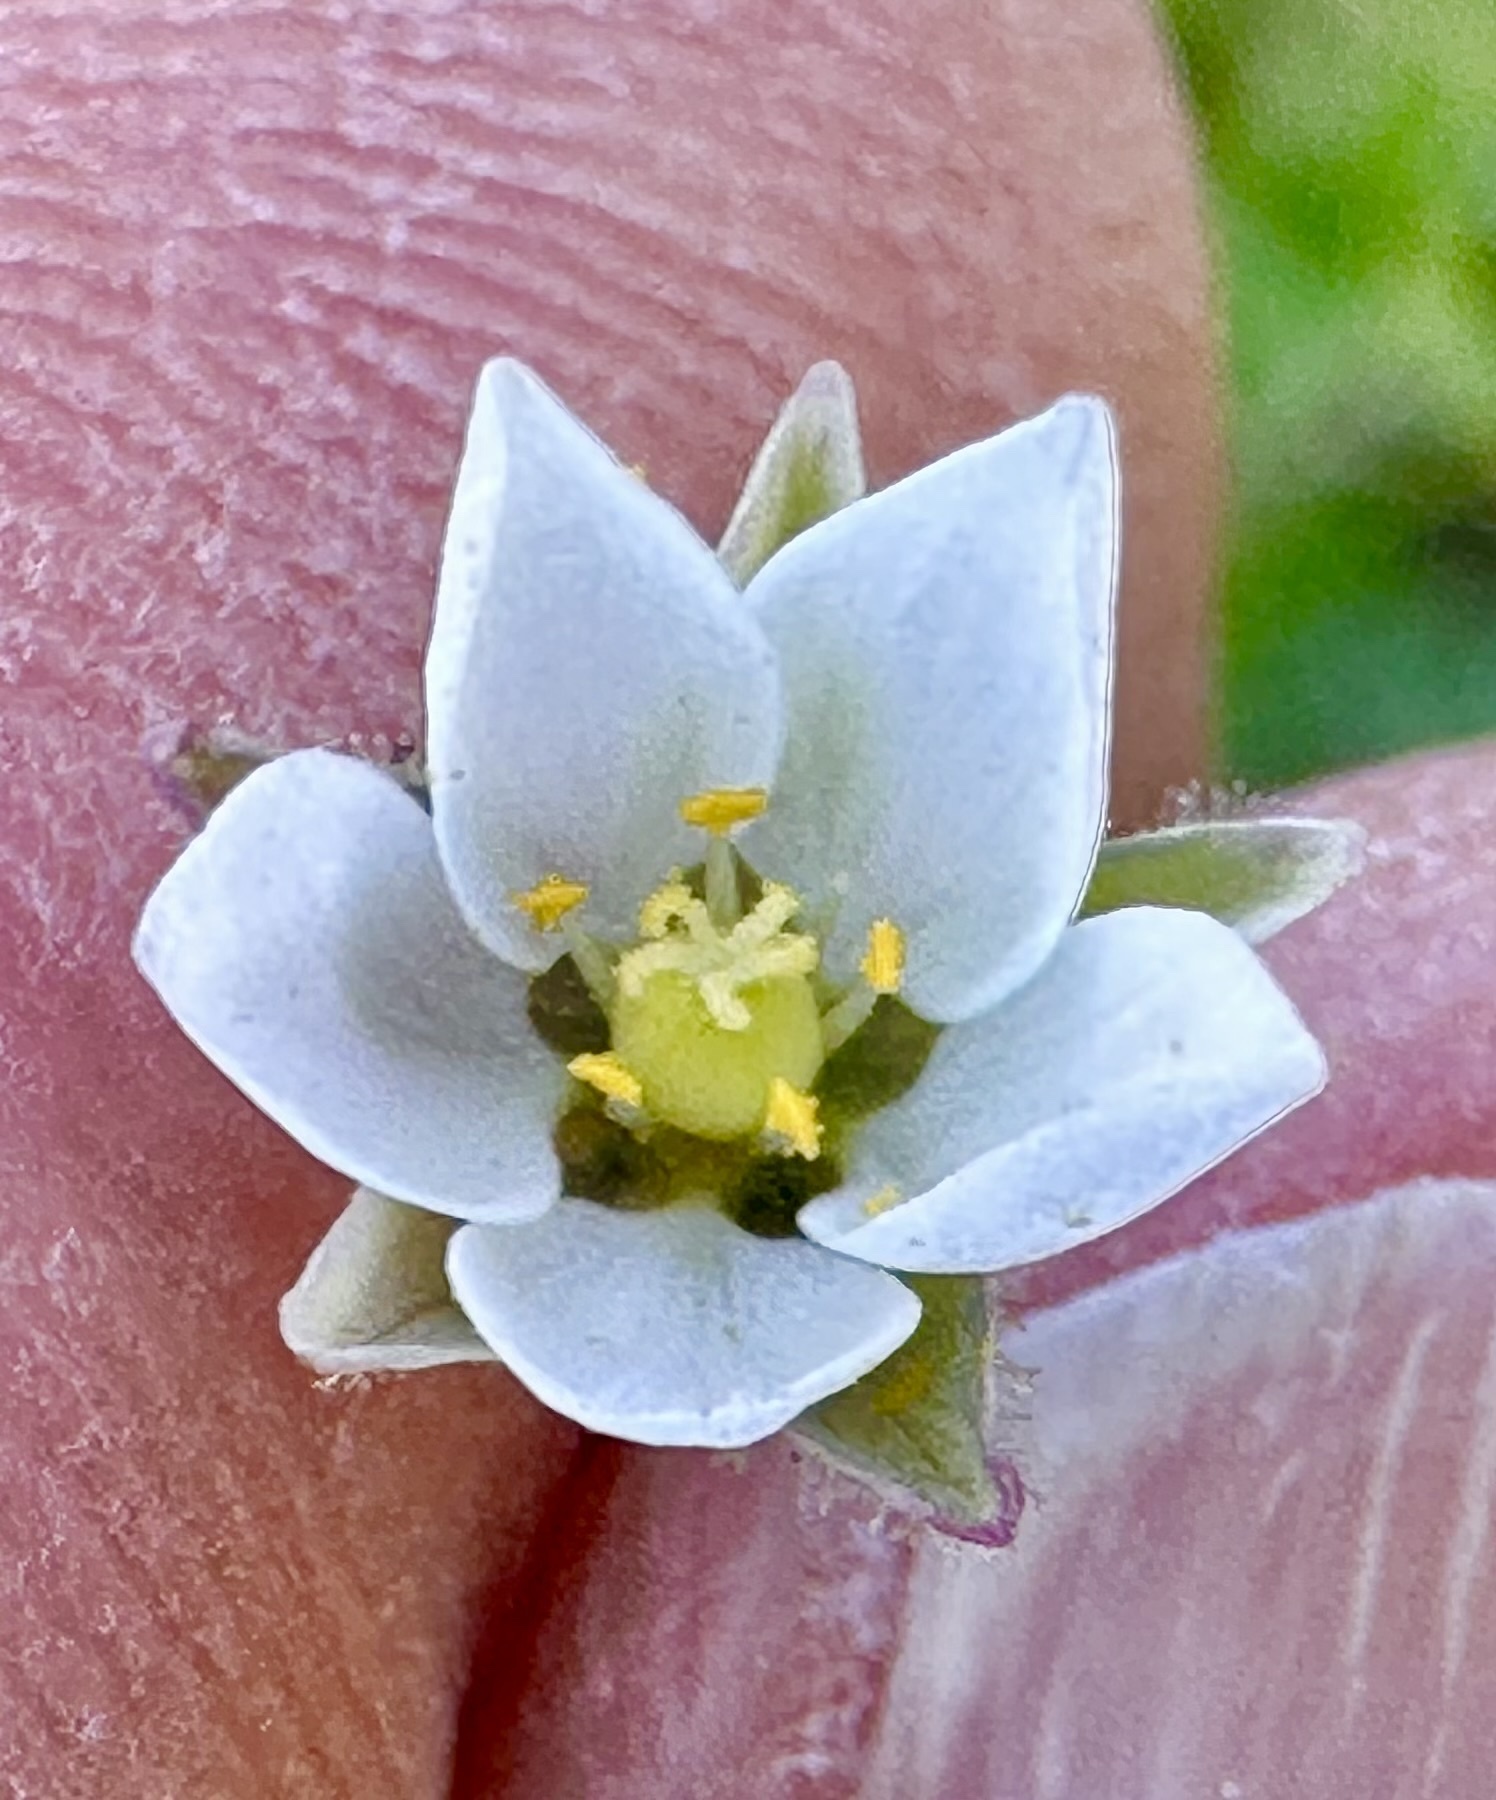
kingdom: Plantae
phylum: Tracheophyta
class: Magnoliopsida
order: Caryophyllales
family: Caryophyllaceae
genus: Spergula
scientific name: Spergula arvensis
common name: Corn spurrey
